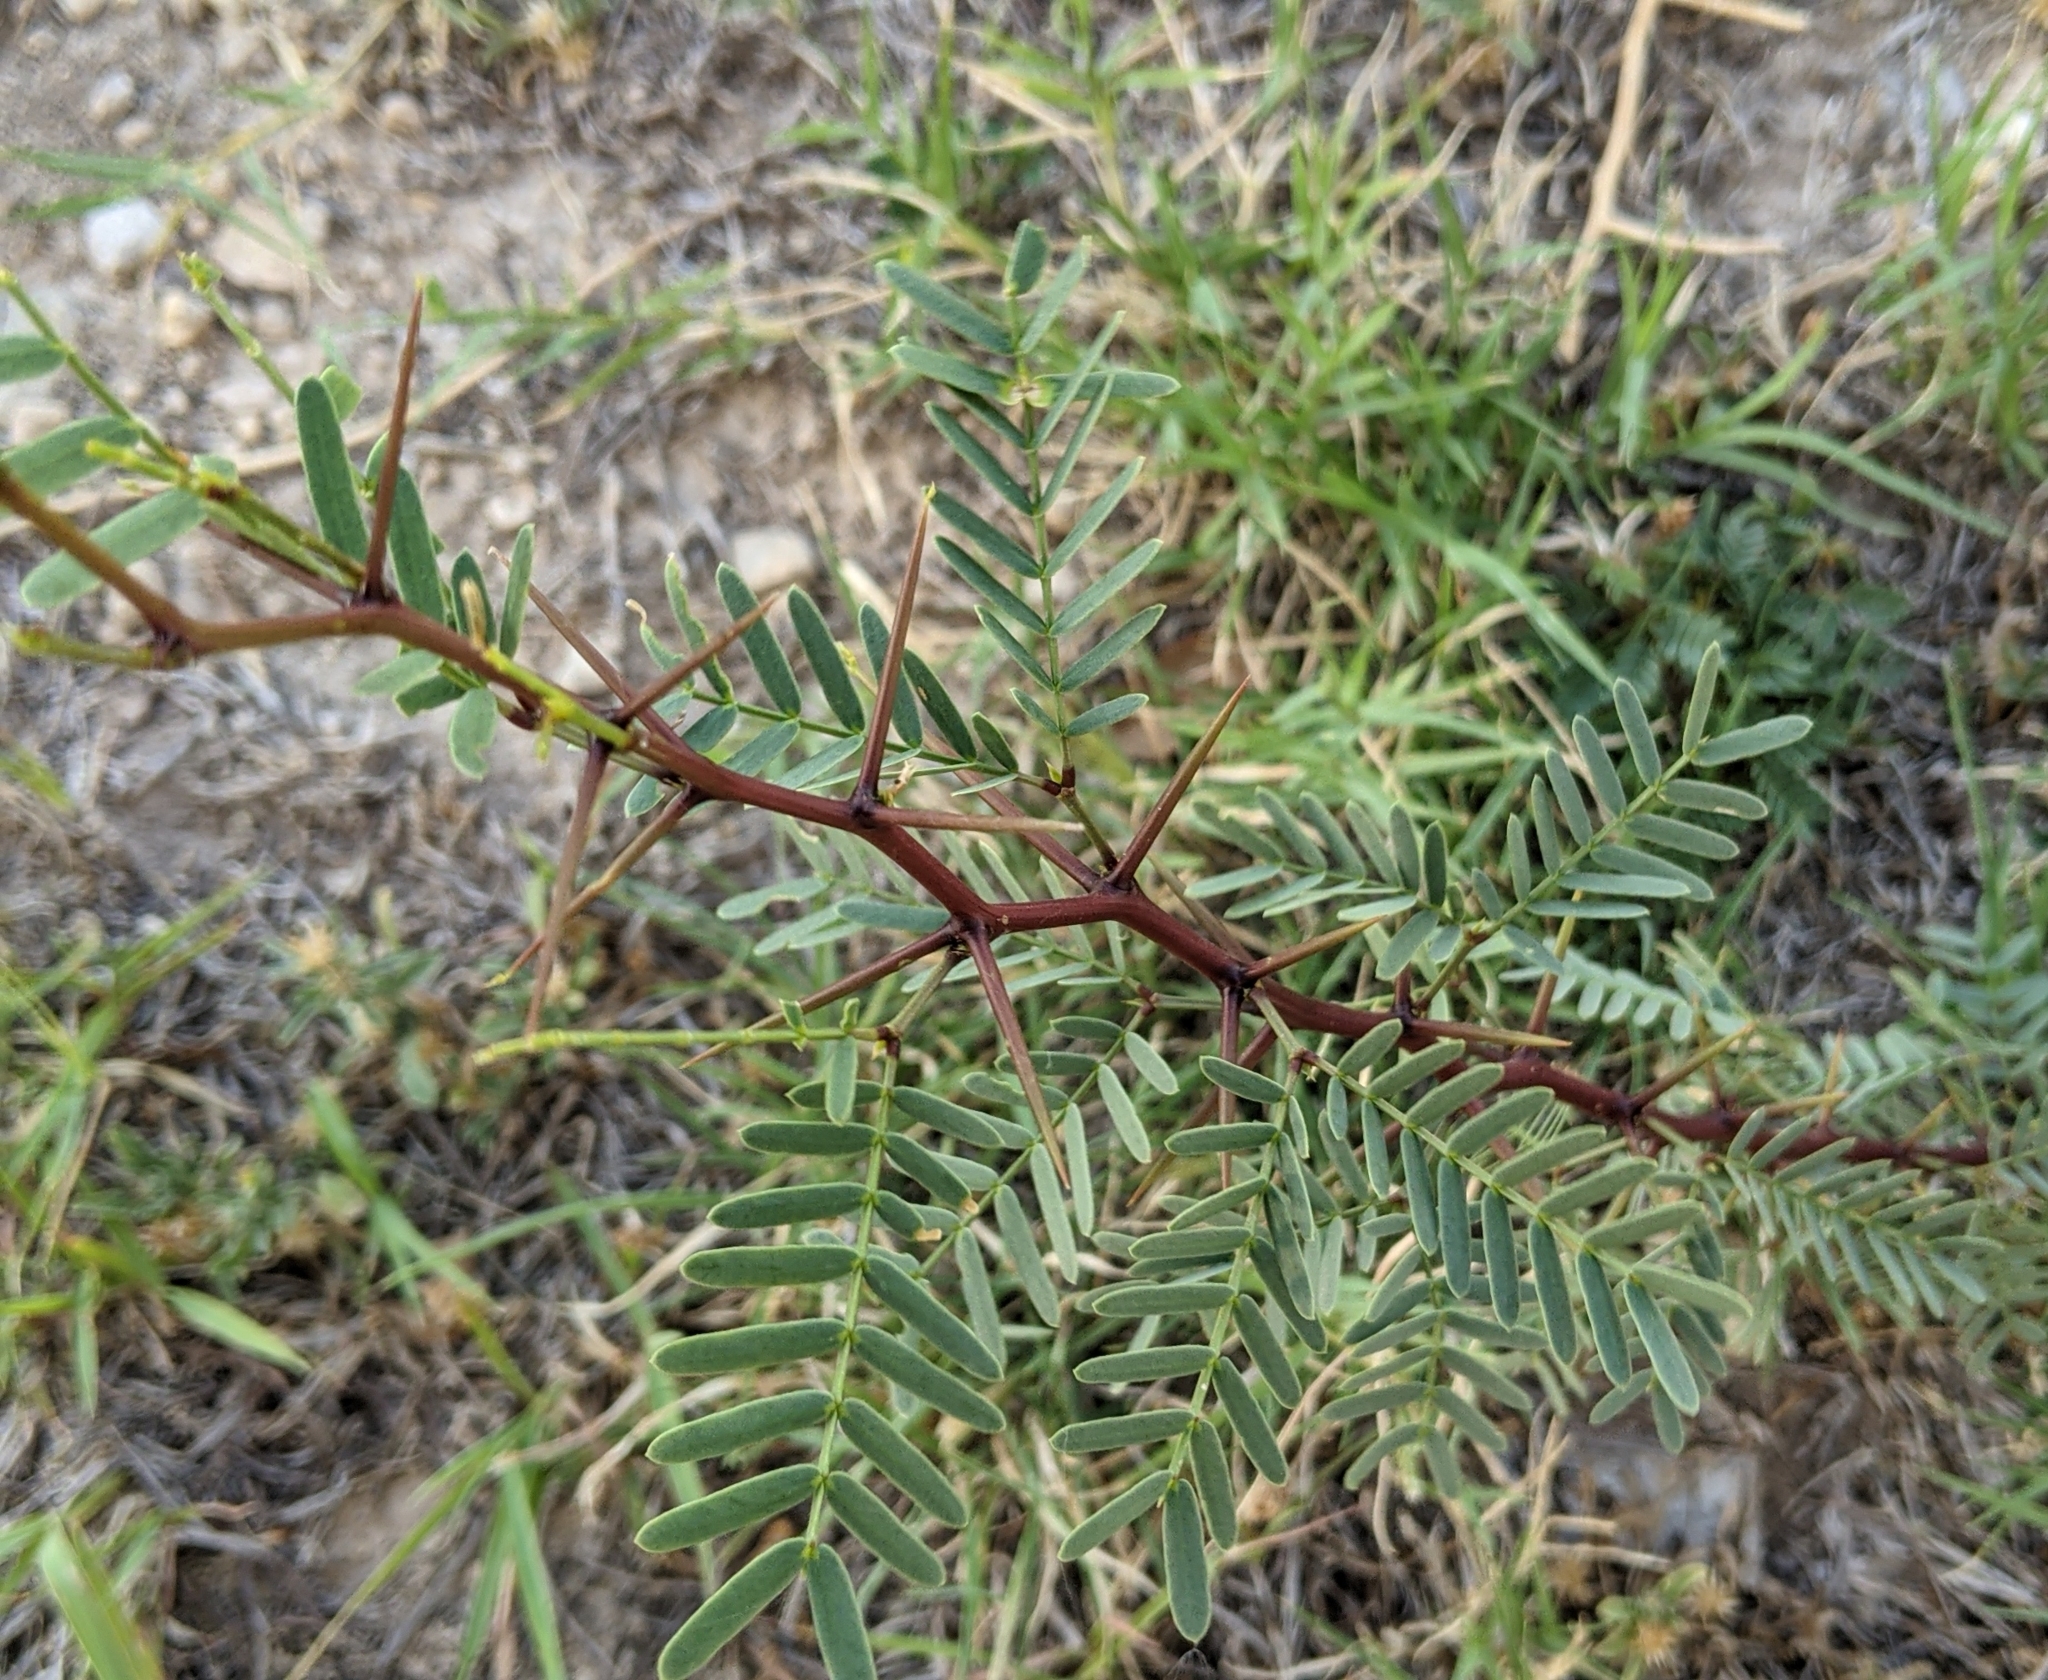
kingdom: Plantae
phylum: Tracheophyta
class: Magnoliopsida
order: Fabales
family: Fabaceae
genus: Prosopis
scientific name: Prosopis glandulosa
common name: Honey mesquite
